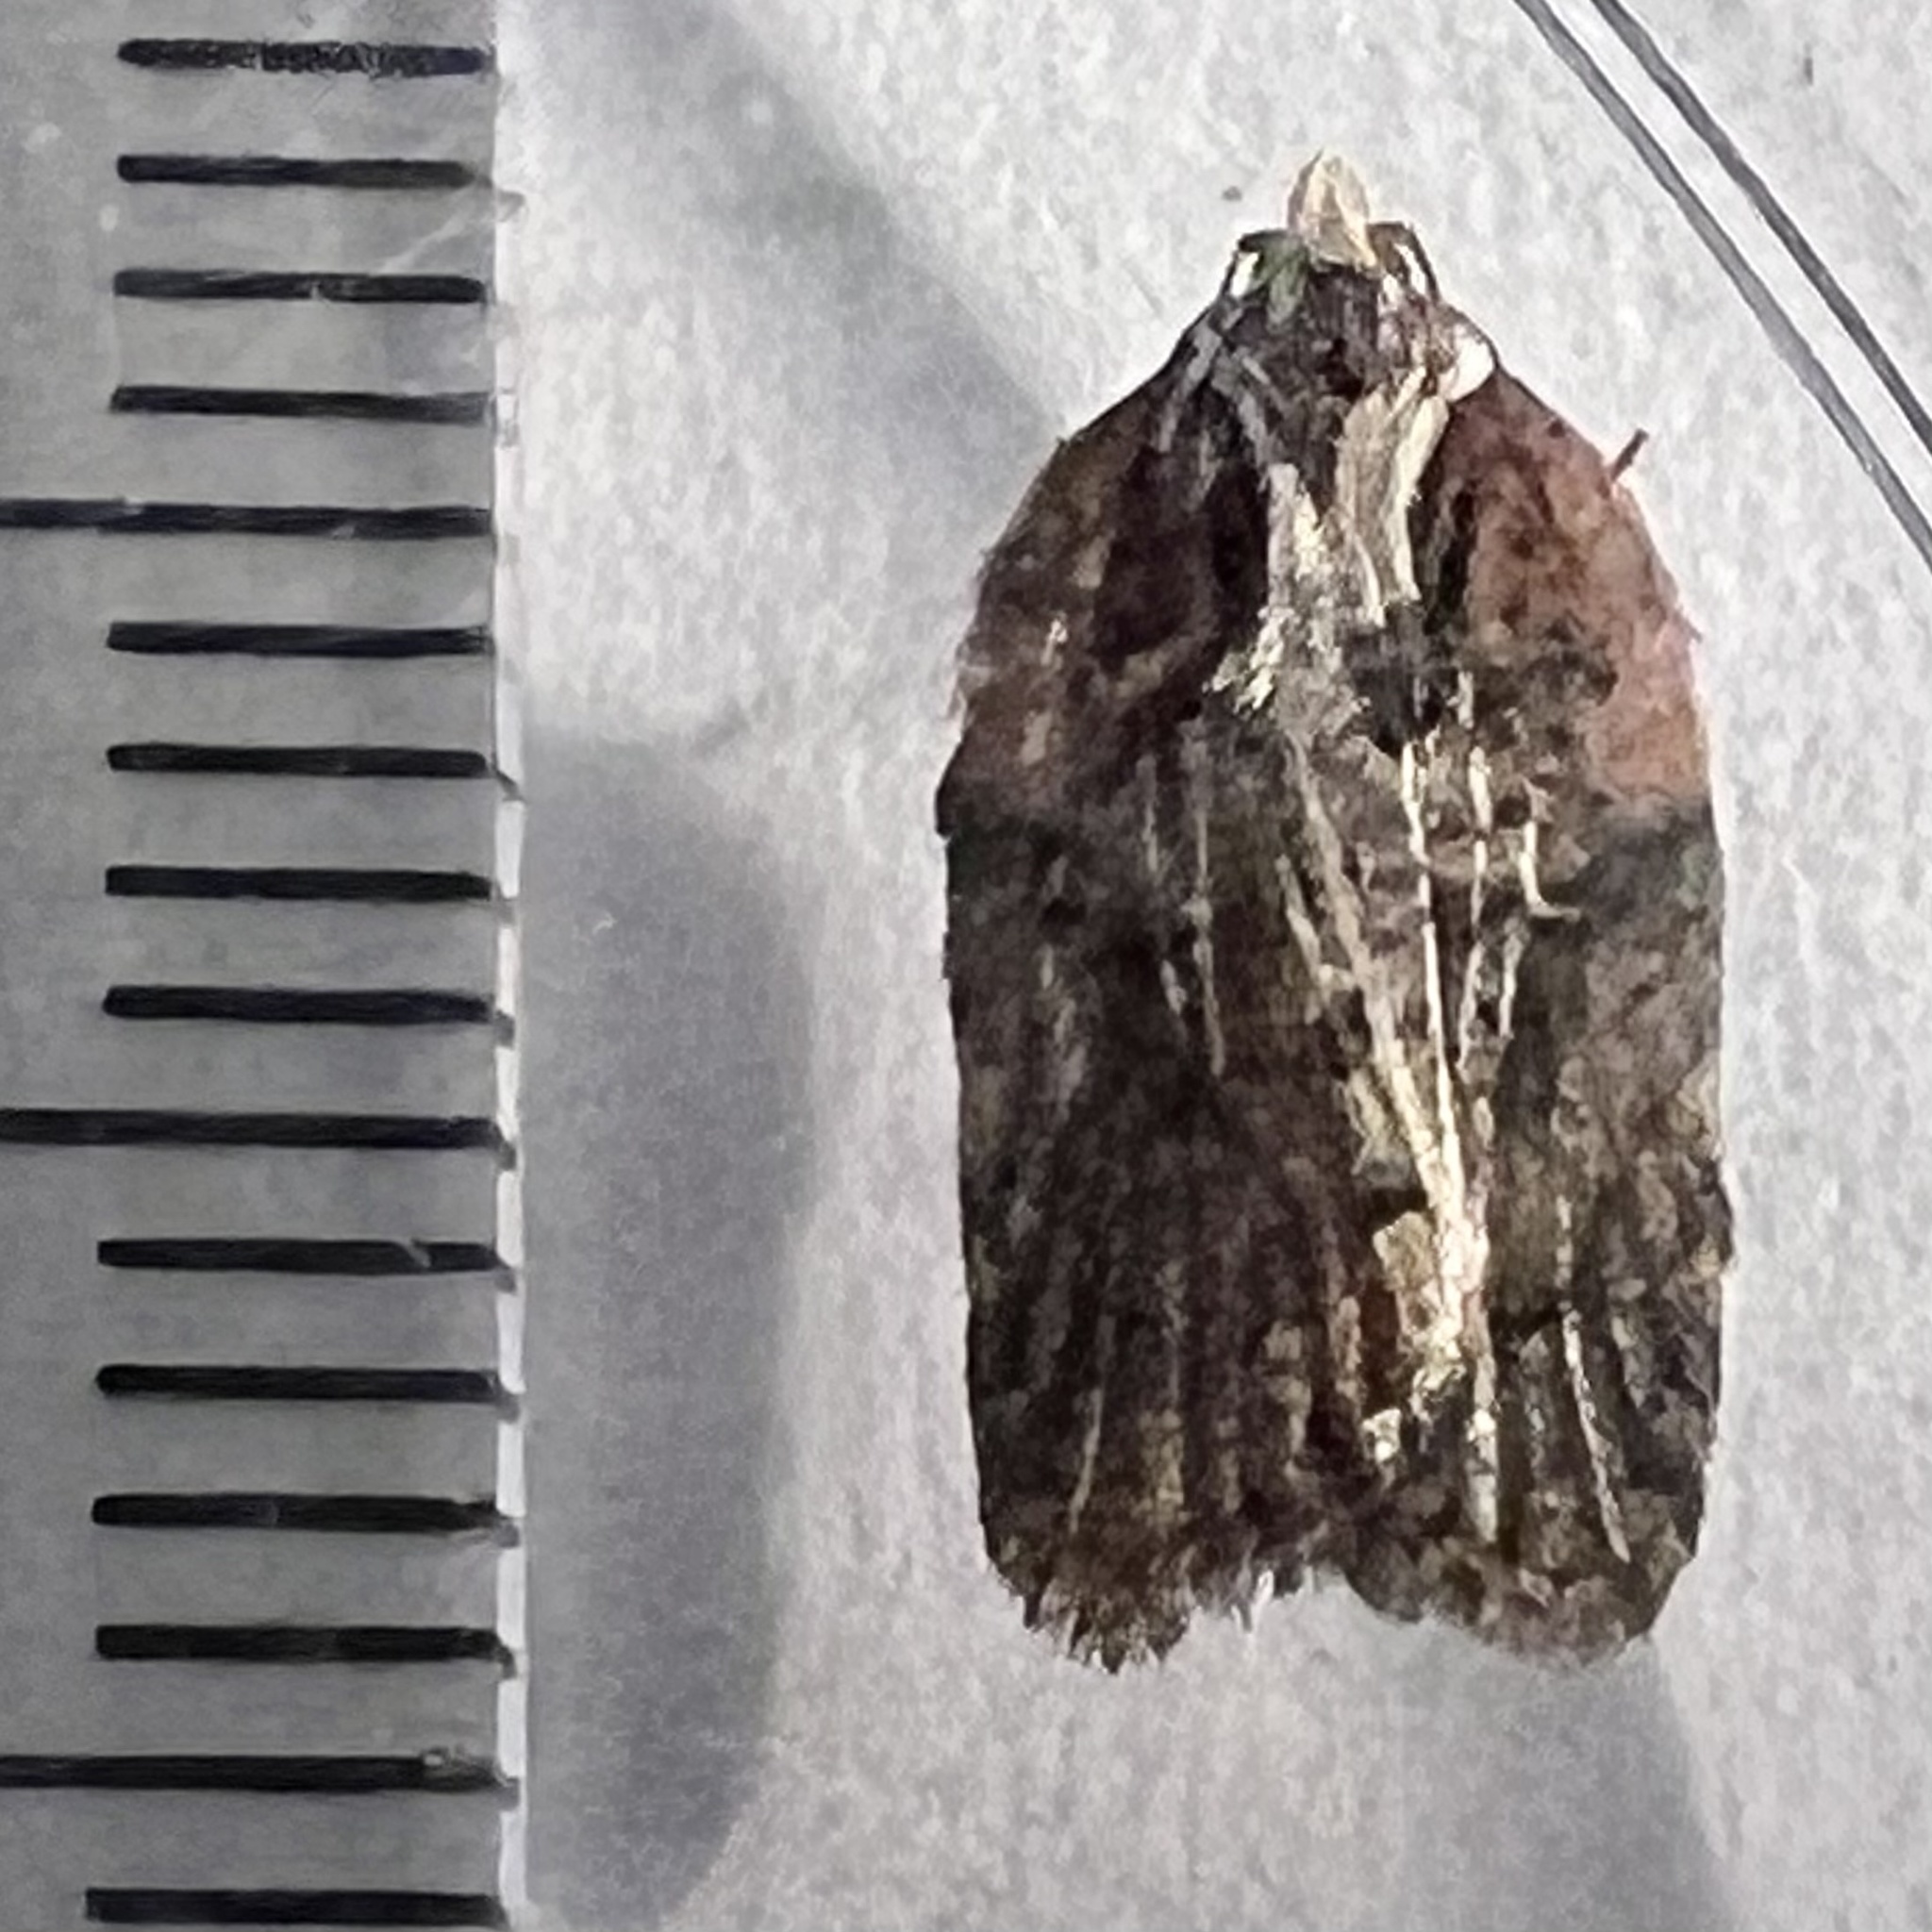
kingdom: Animalia
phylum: Arthropoda
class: Insecta
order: Lepidoptera
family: Tortricidae
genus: Acleris
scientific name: Acleris flavivittana
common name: Multiform leafroller moth
